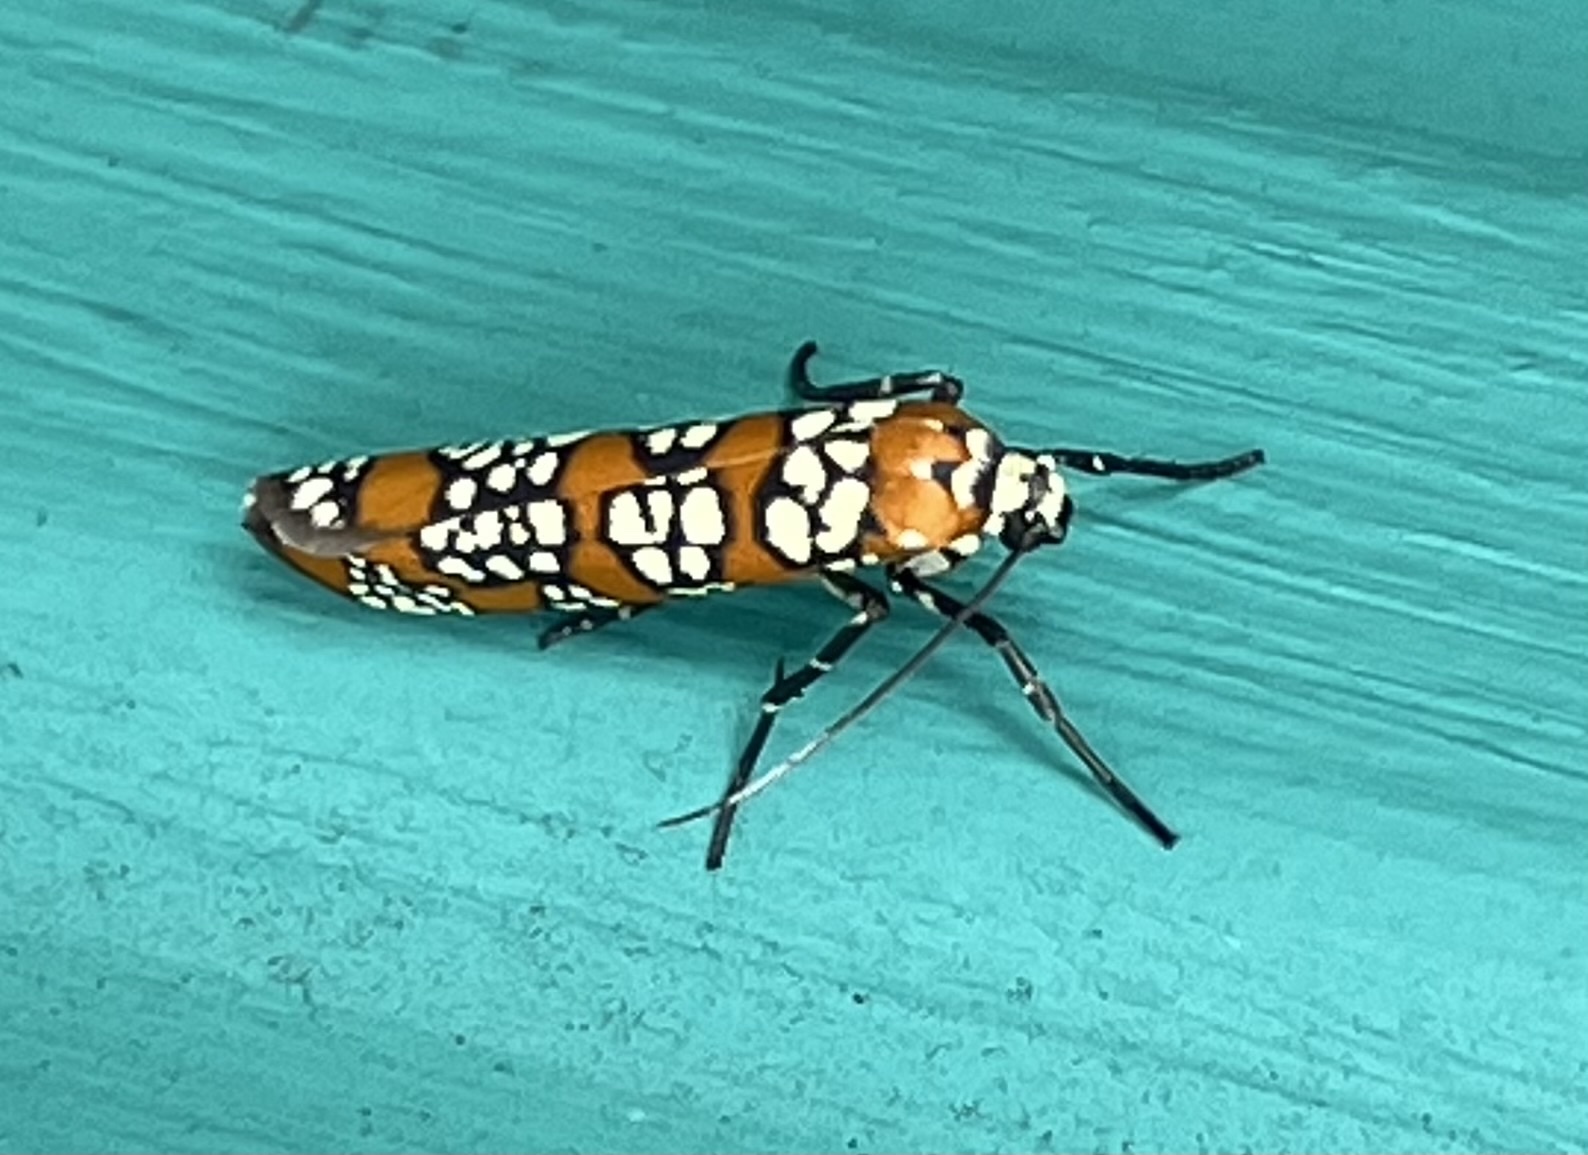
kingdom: Animalia
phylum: Arthropoda
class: Insecta
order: Lepidoptera
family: Attevidae
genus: Atteva
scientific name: Atteva punctella
